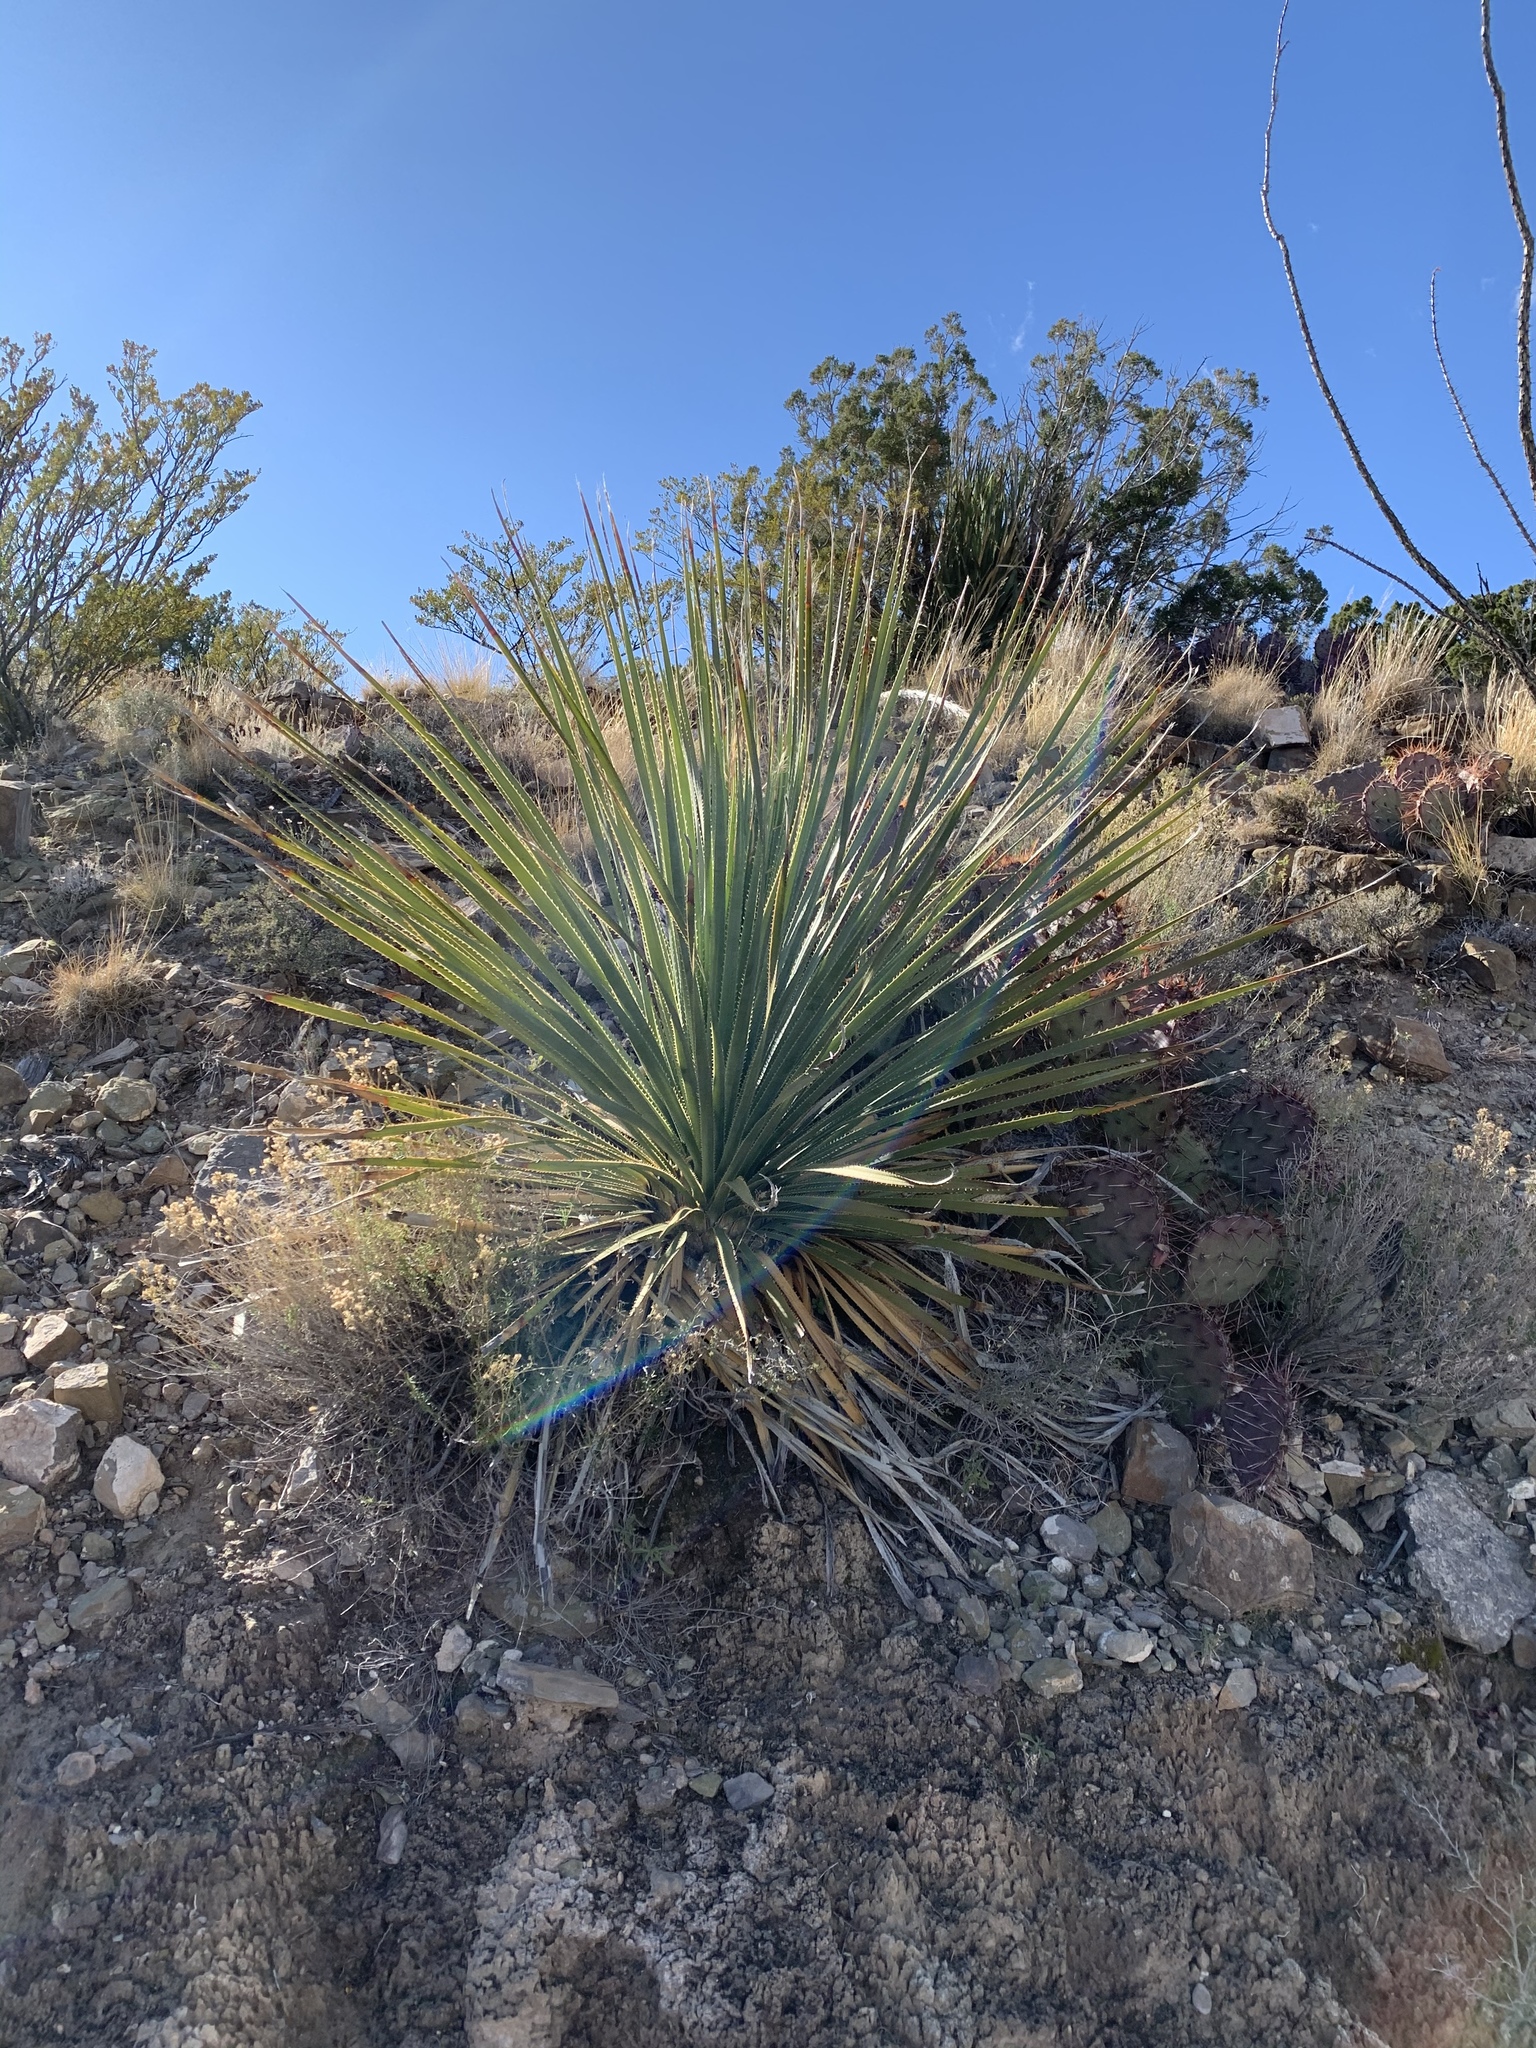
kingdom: Plantae
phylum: Tracheophyta
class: Liliopsida
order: Asparagales
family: Asparagaceae
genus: Dasylirion
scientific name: Dasylirion wheeleri
